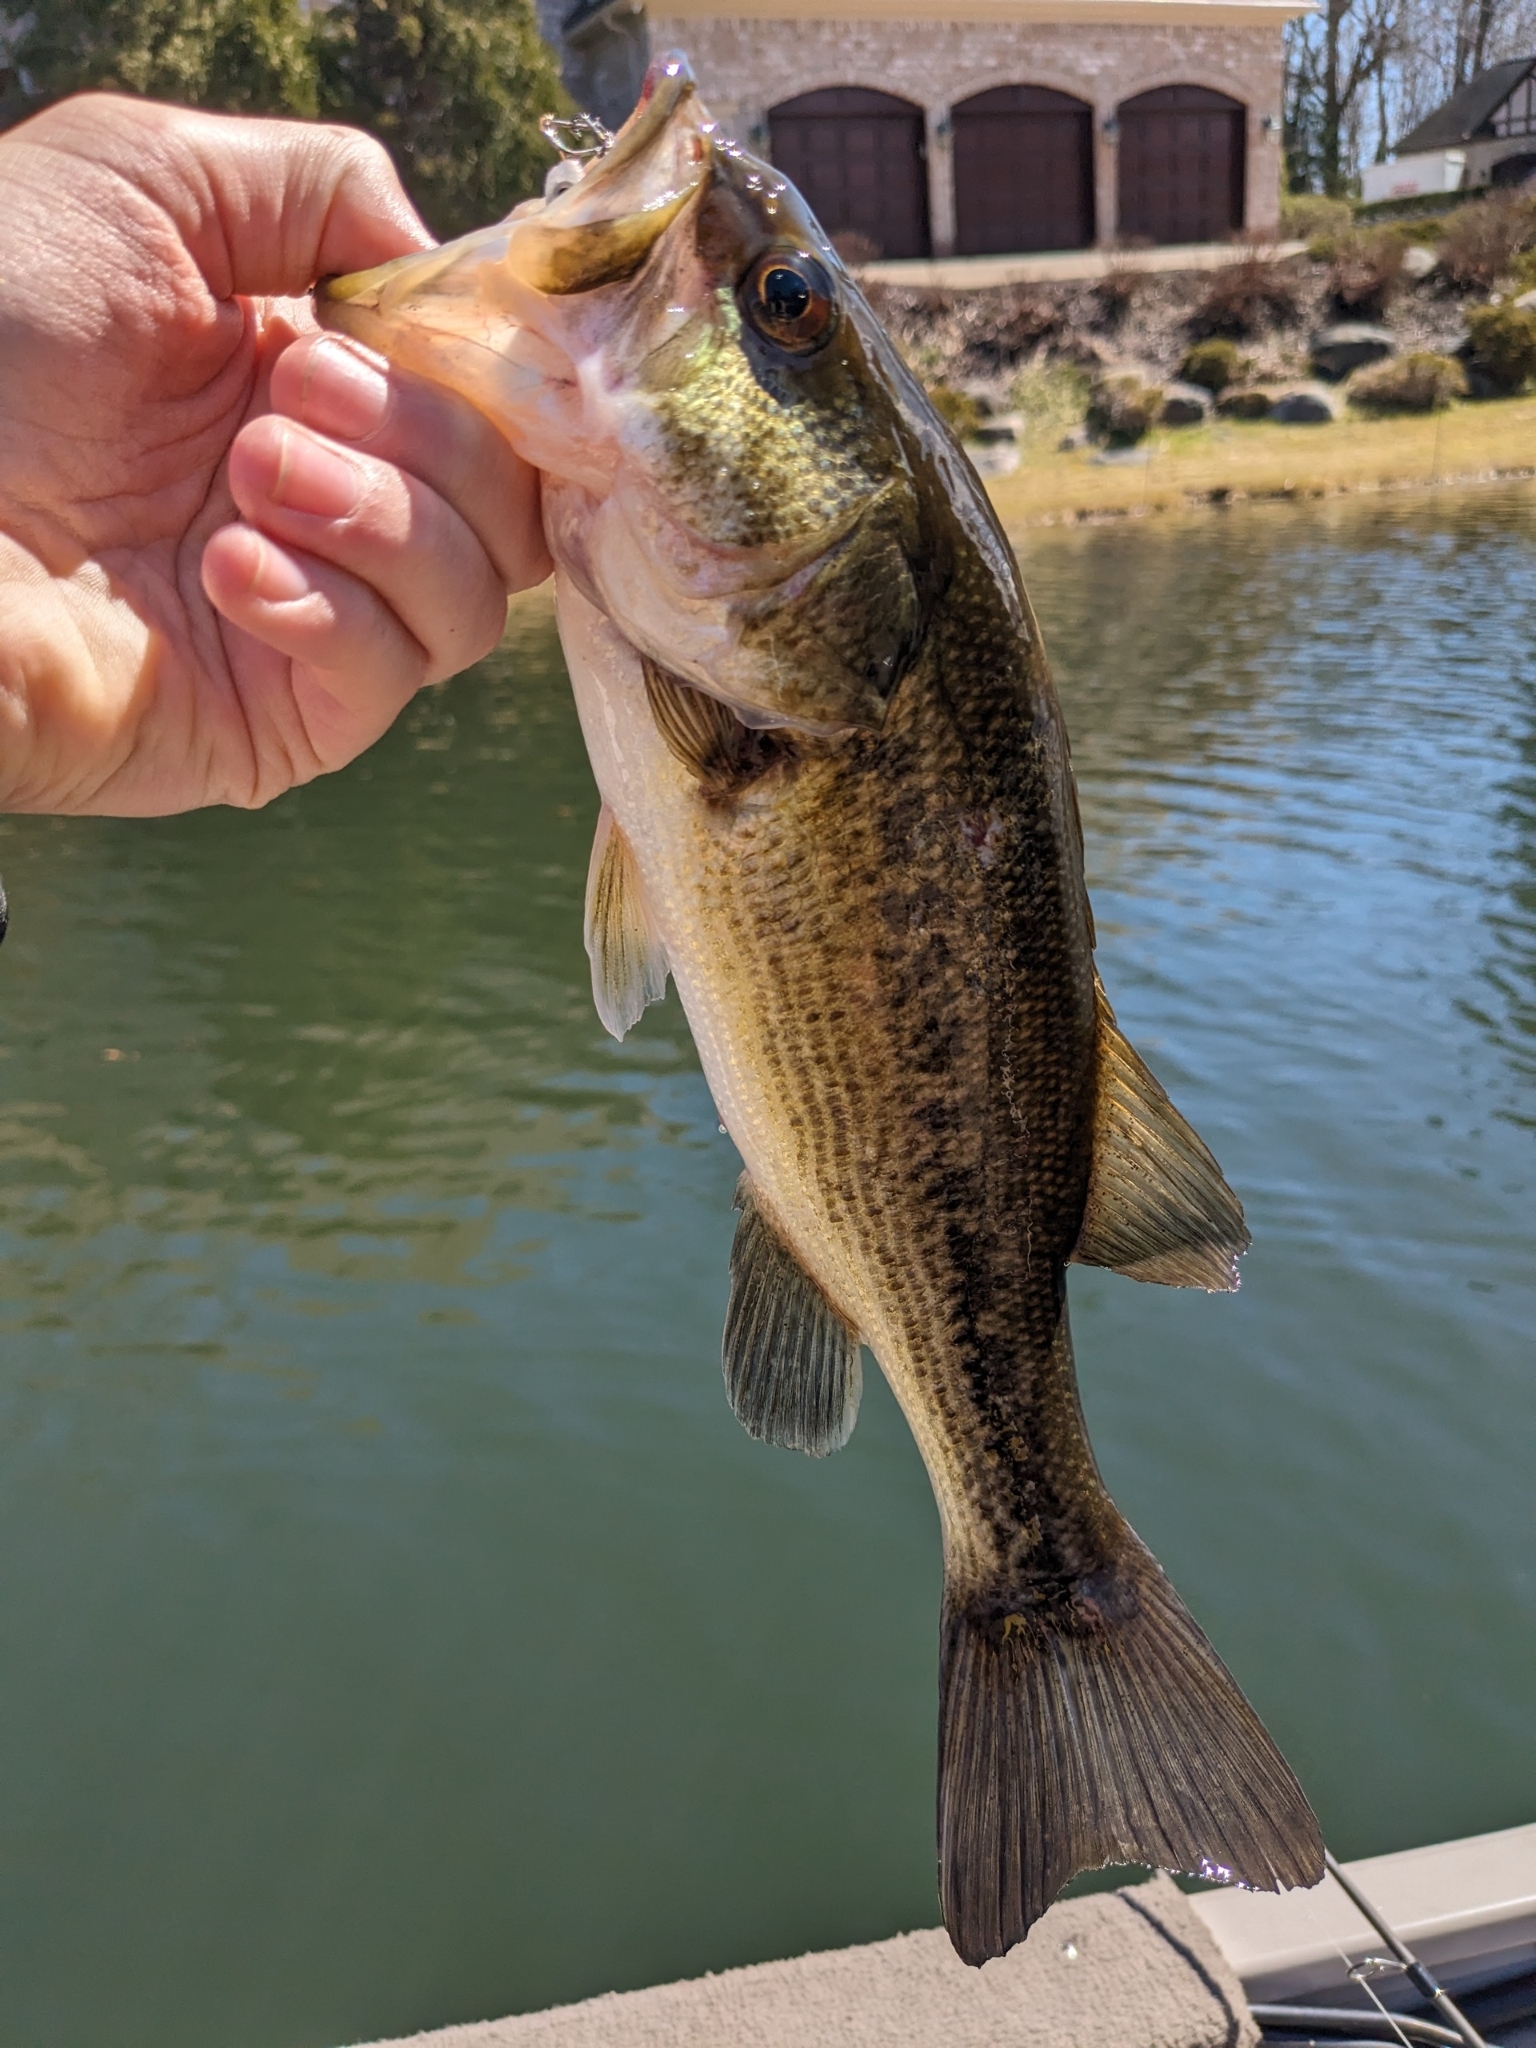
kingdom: Animalia
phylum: Chordata
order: Perciformes
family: Centrarchidae
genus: Micropterus
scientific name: Micropterus
